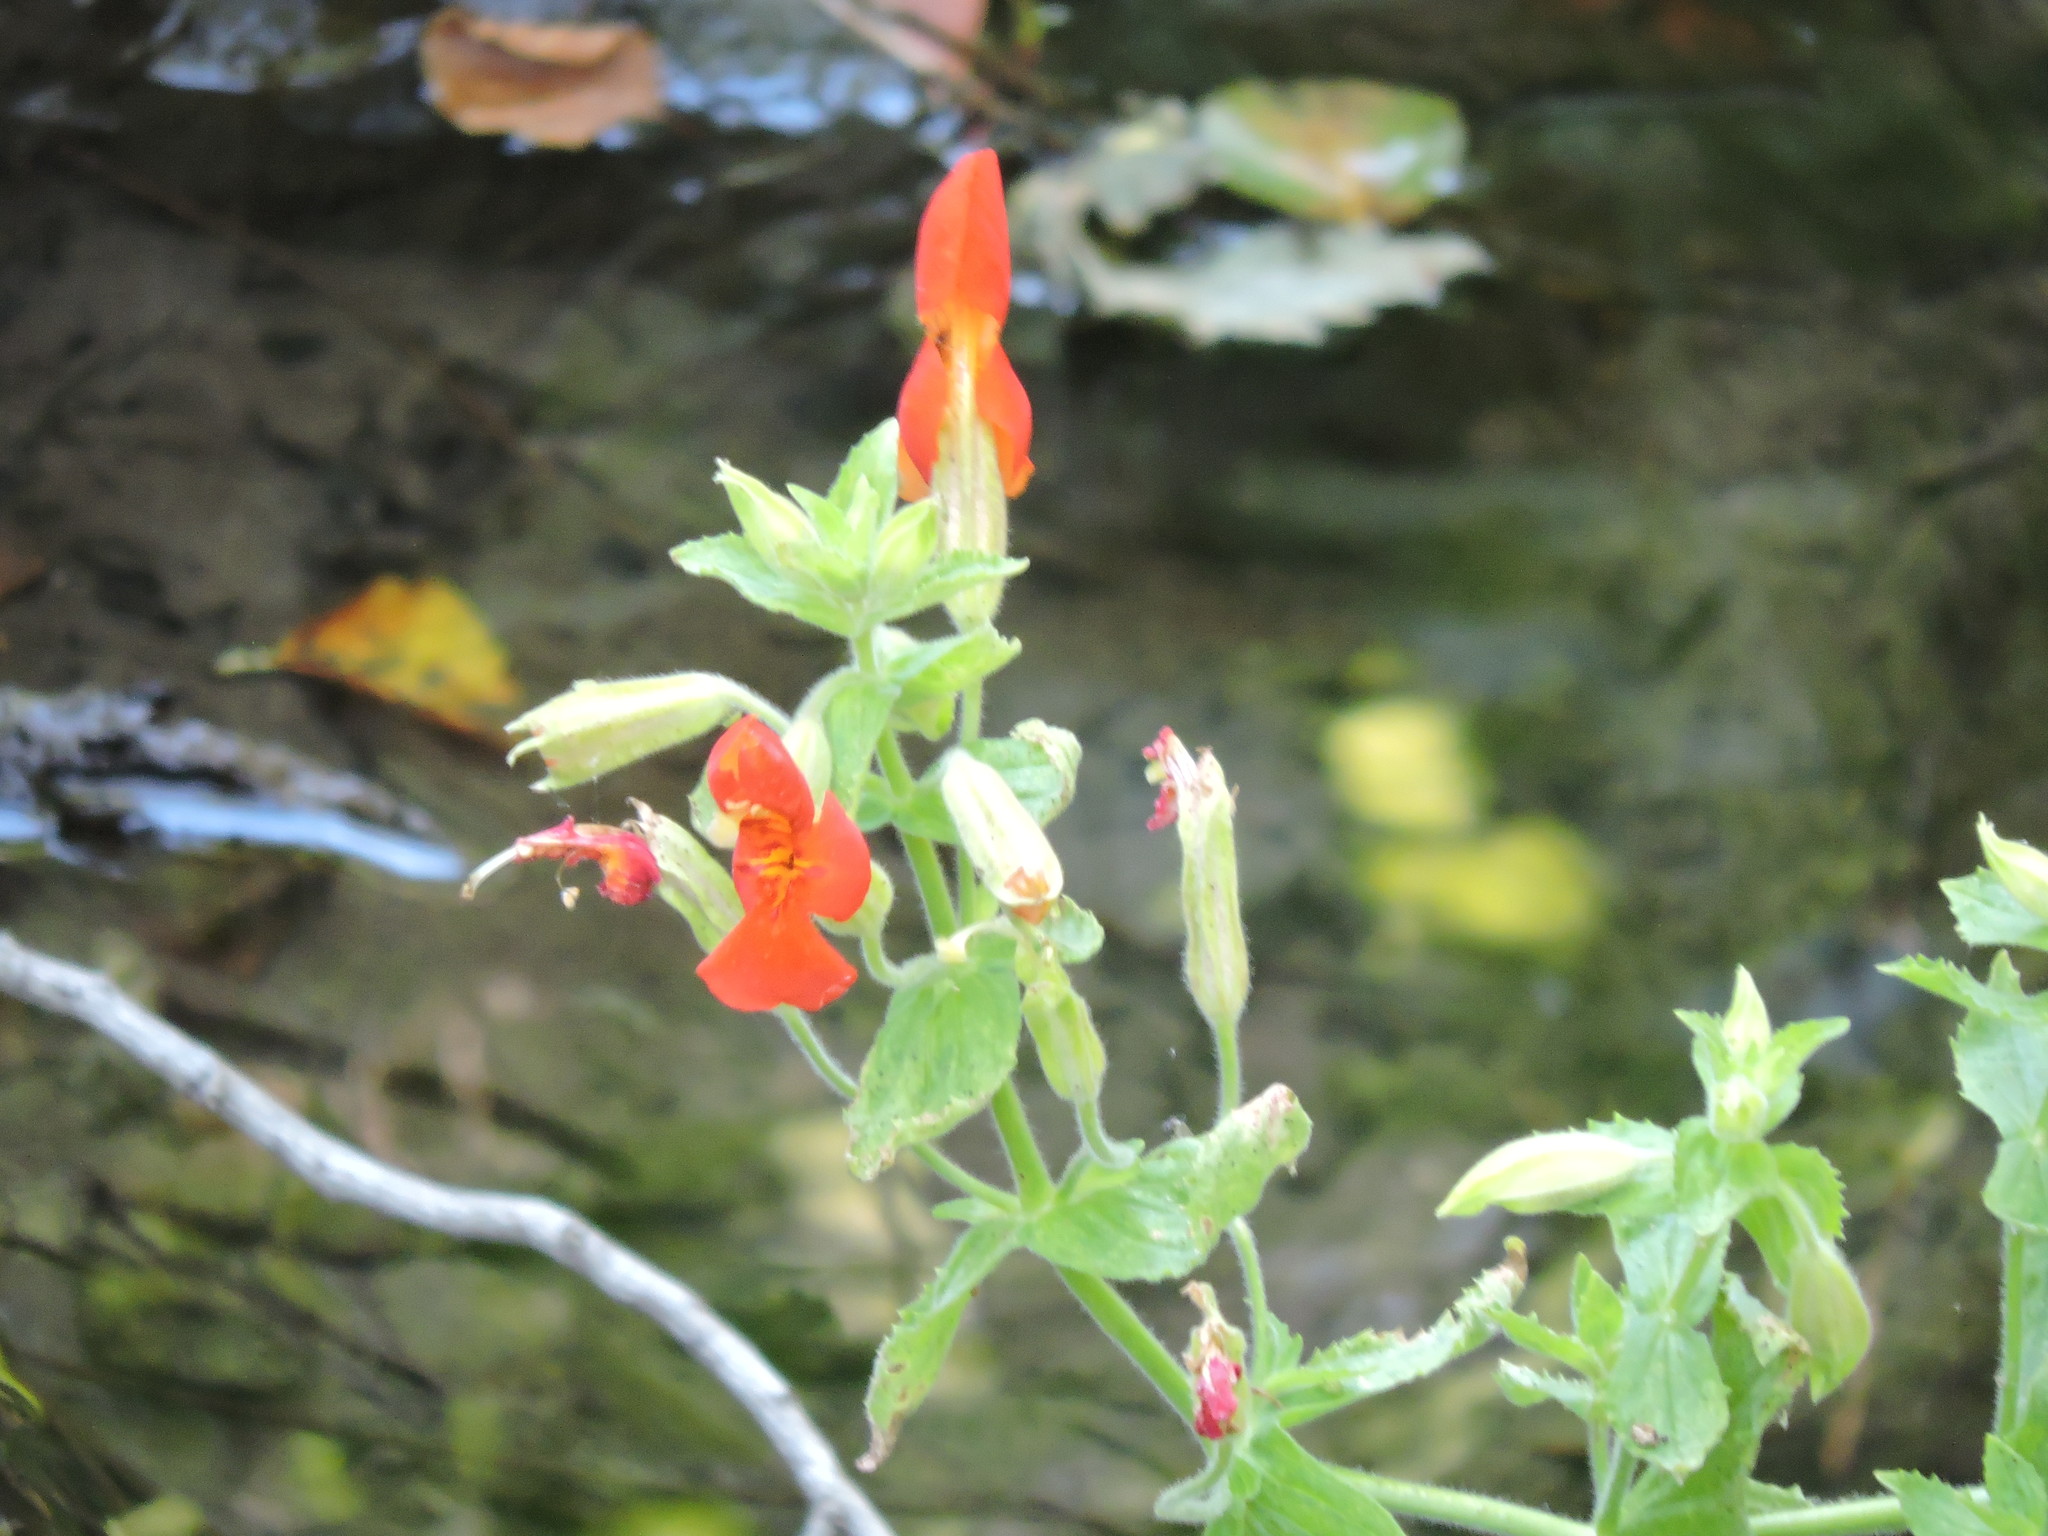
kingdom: Plantae
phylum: Tracheophyta
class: Magnoliopsida
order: Lamiales
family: Phrymaceae
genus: Erythranthe
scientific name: Erythranthe cardinalis
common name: Scarlet monkey-flower
